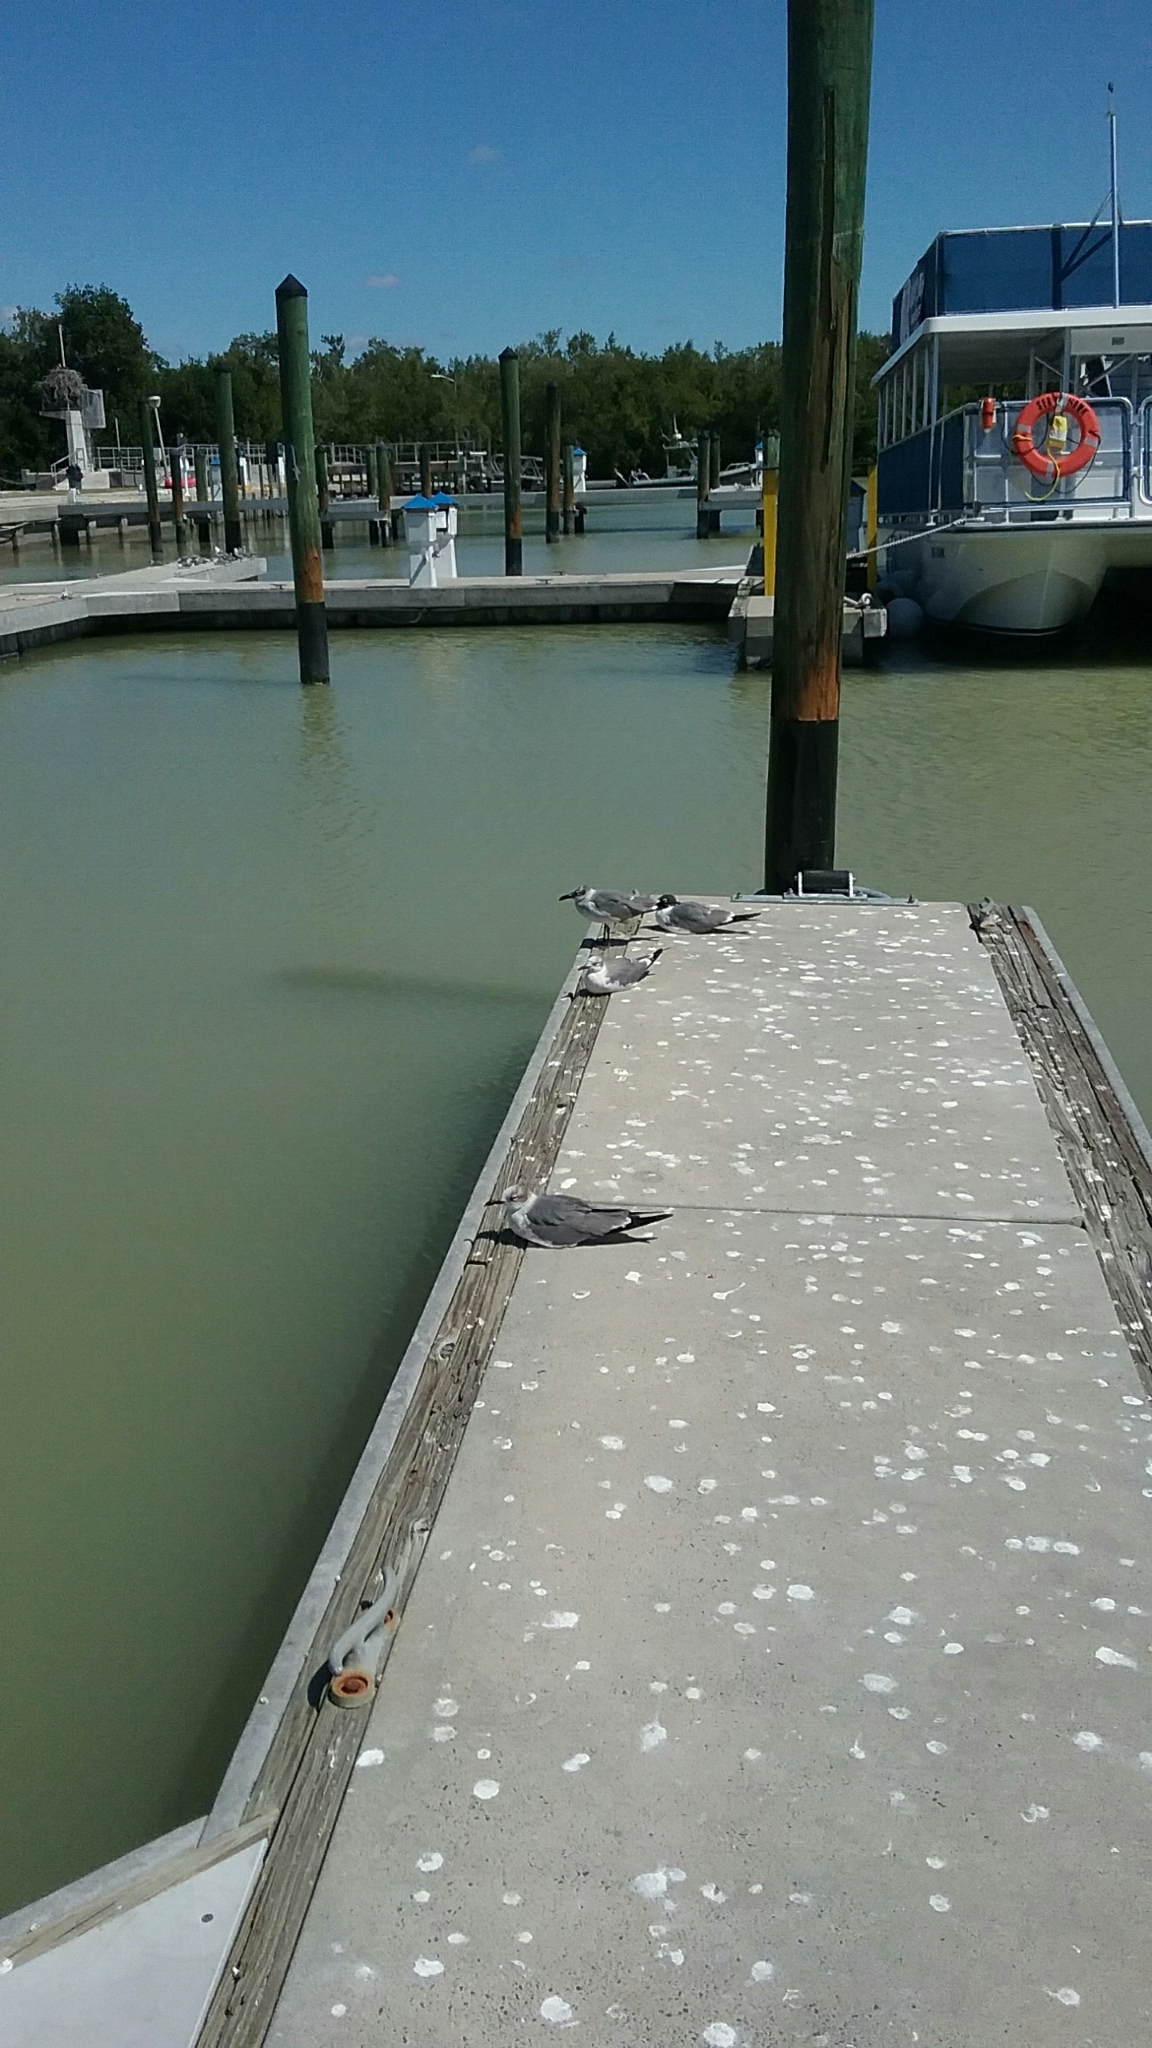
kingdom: Animalia
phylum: Chordata
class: Aves
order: Charadriiformes
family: Laridae
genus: Leucophaeus
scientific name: Leucophaeus atricilla
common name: Laughing gull
